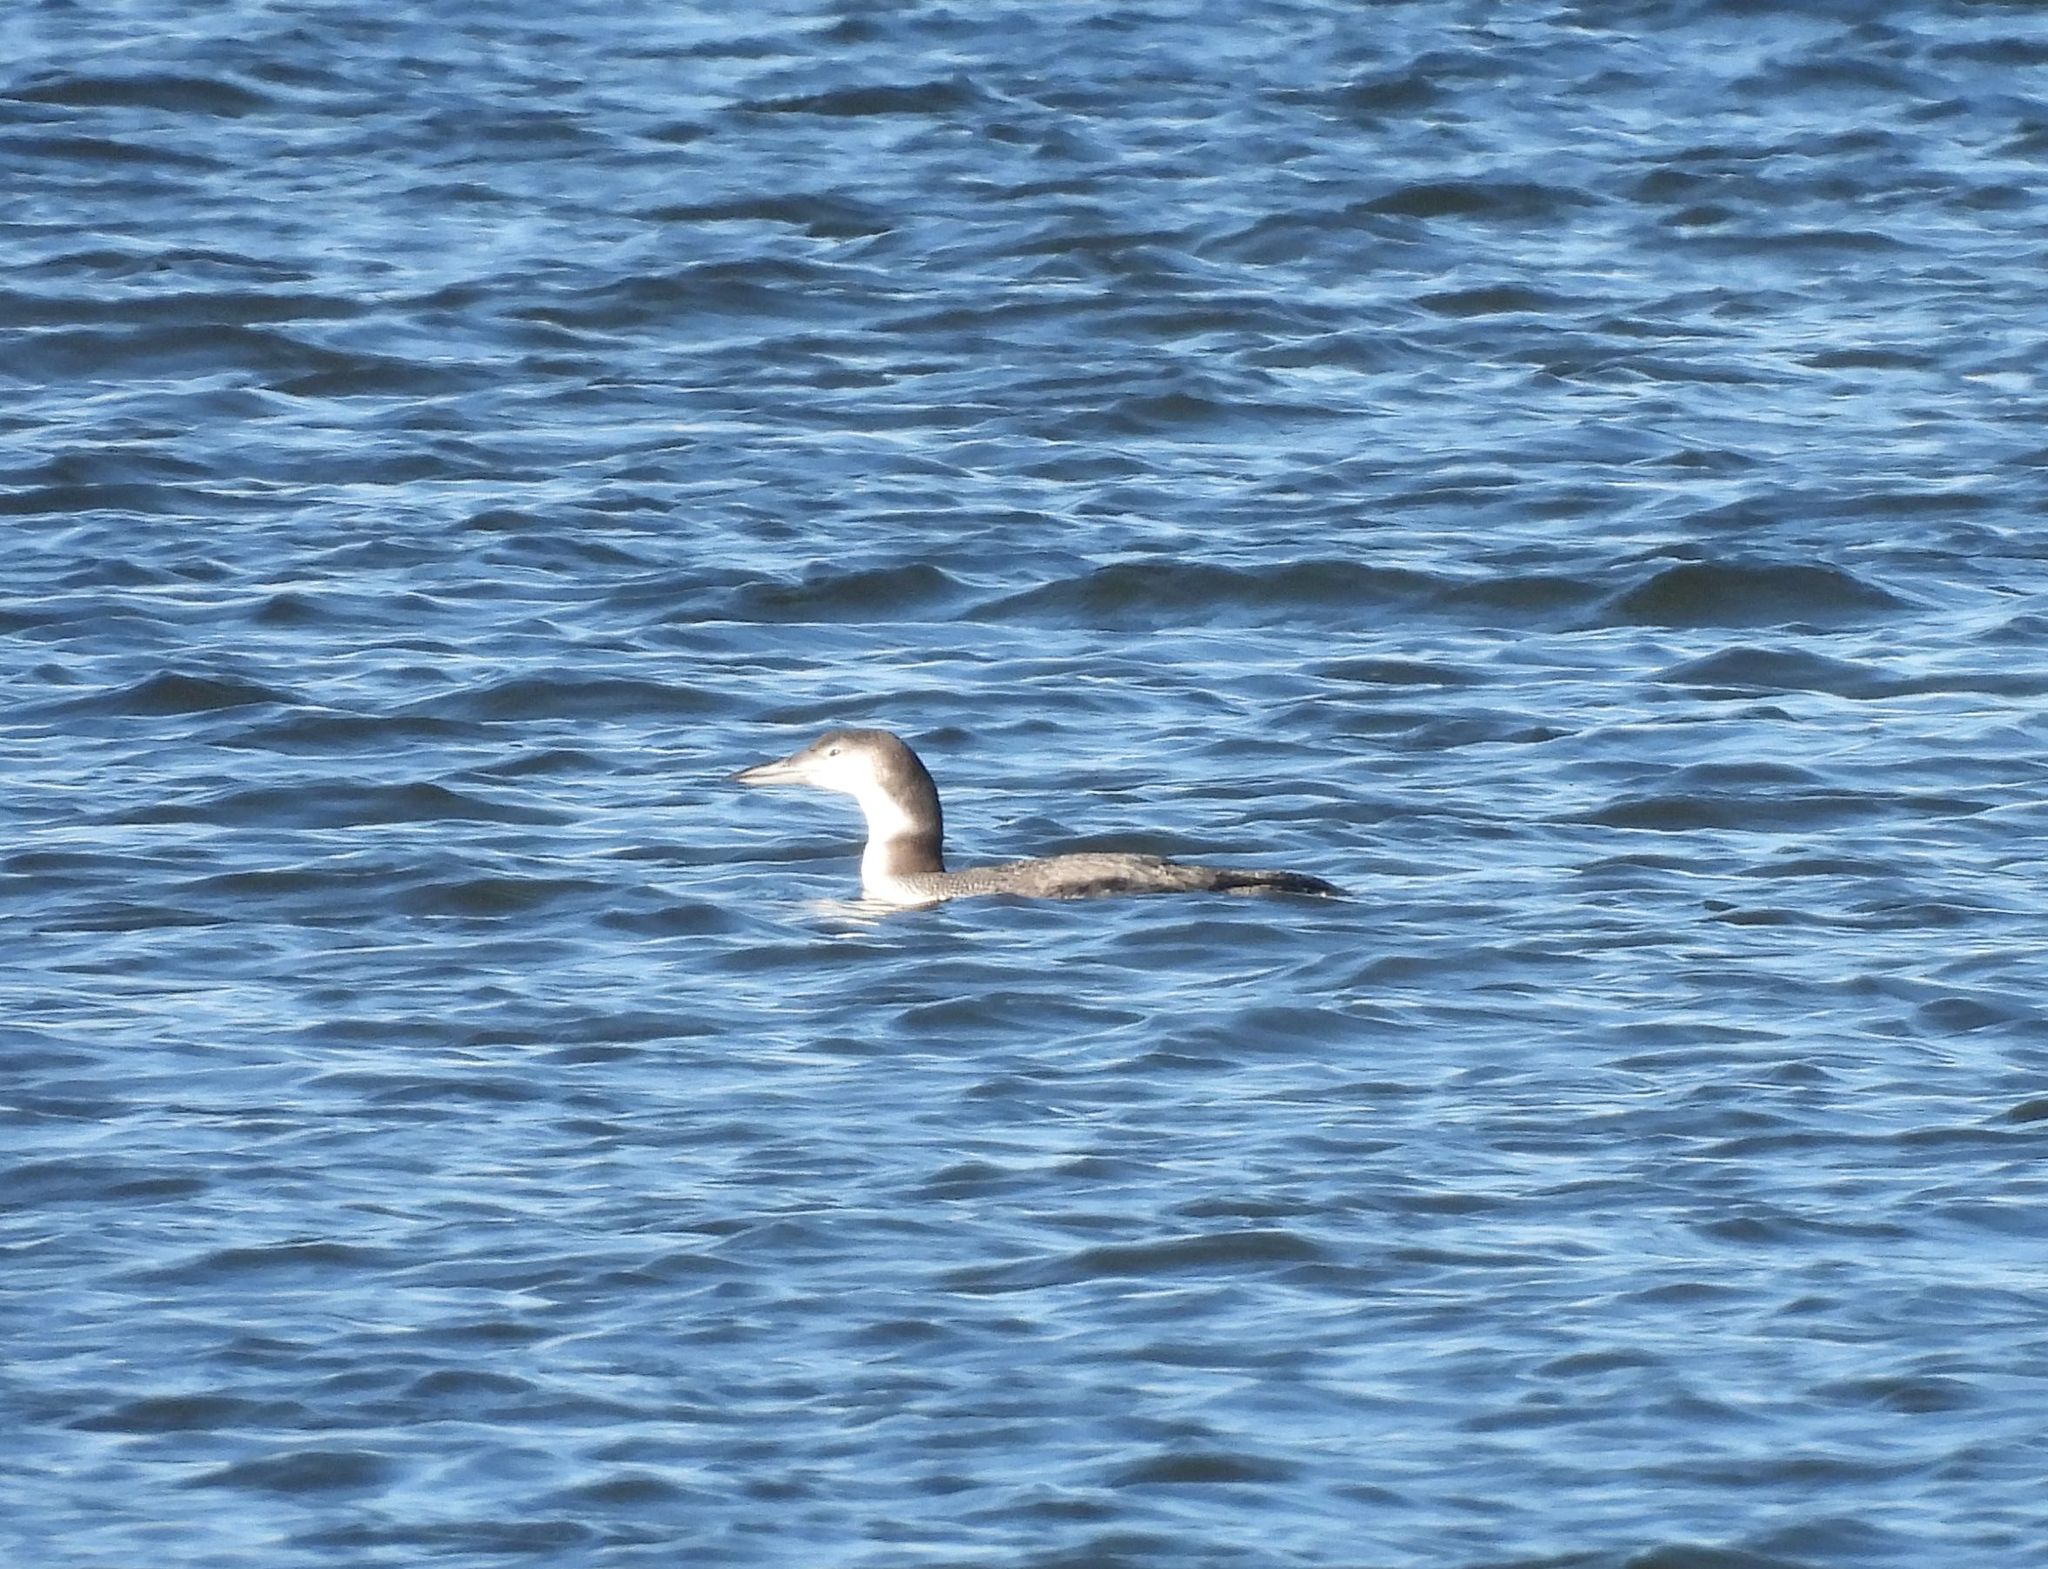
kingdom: Animalia
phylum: Chordata
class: Aves
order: Gaviiformes
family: Gaviidae
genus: Gavia
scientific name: Gavia immer
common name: Common loon
